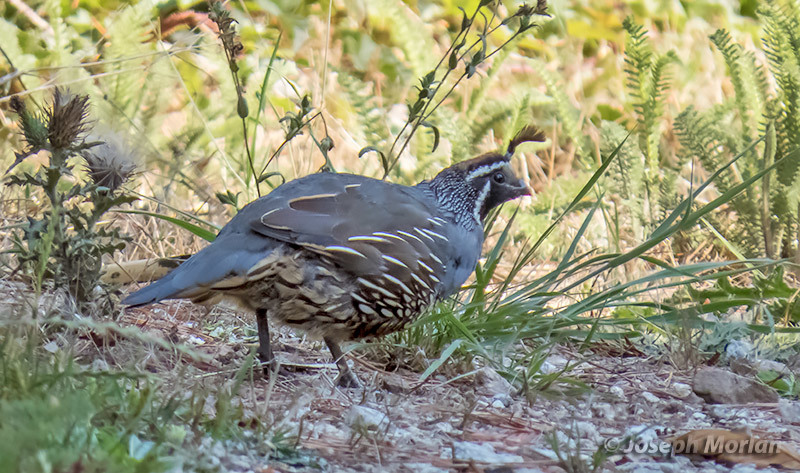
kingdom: Animalia
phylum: Chordata
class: Aves
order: Galliformes
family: Odontophoridae
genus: Callipepla
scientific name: Callipepla californica
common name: California quail
